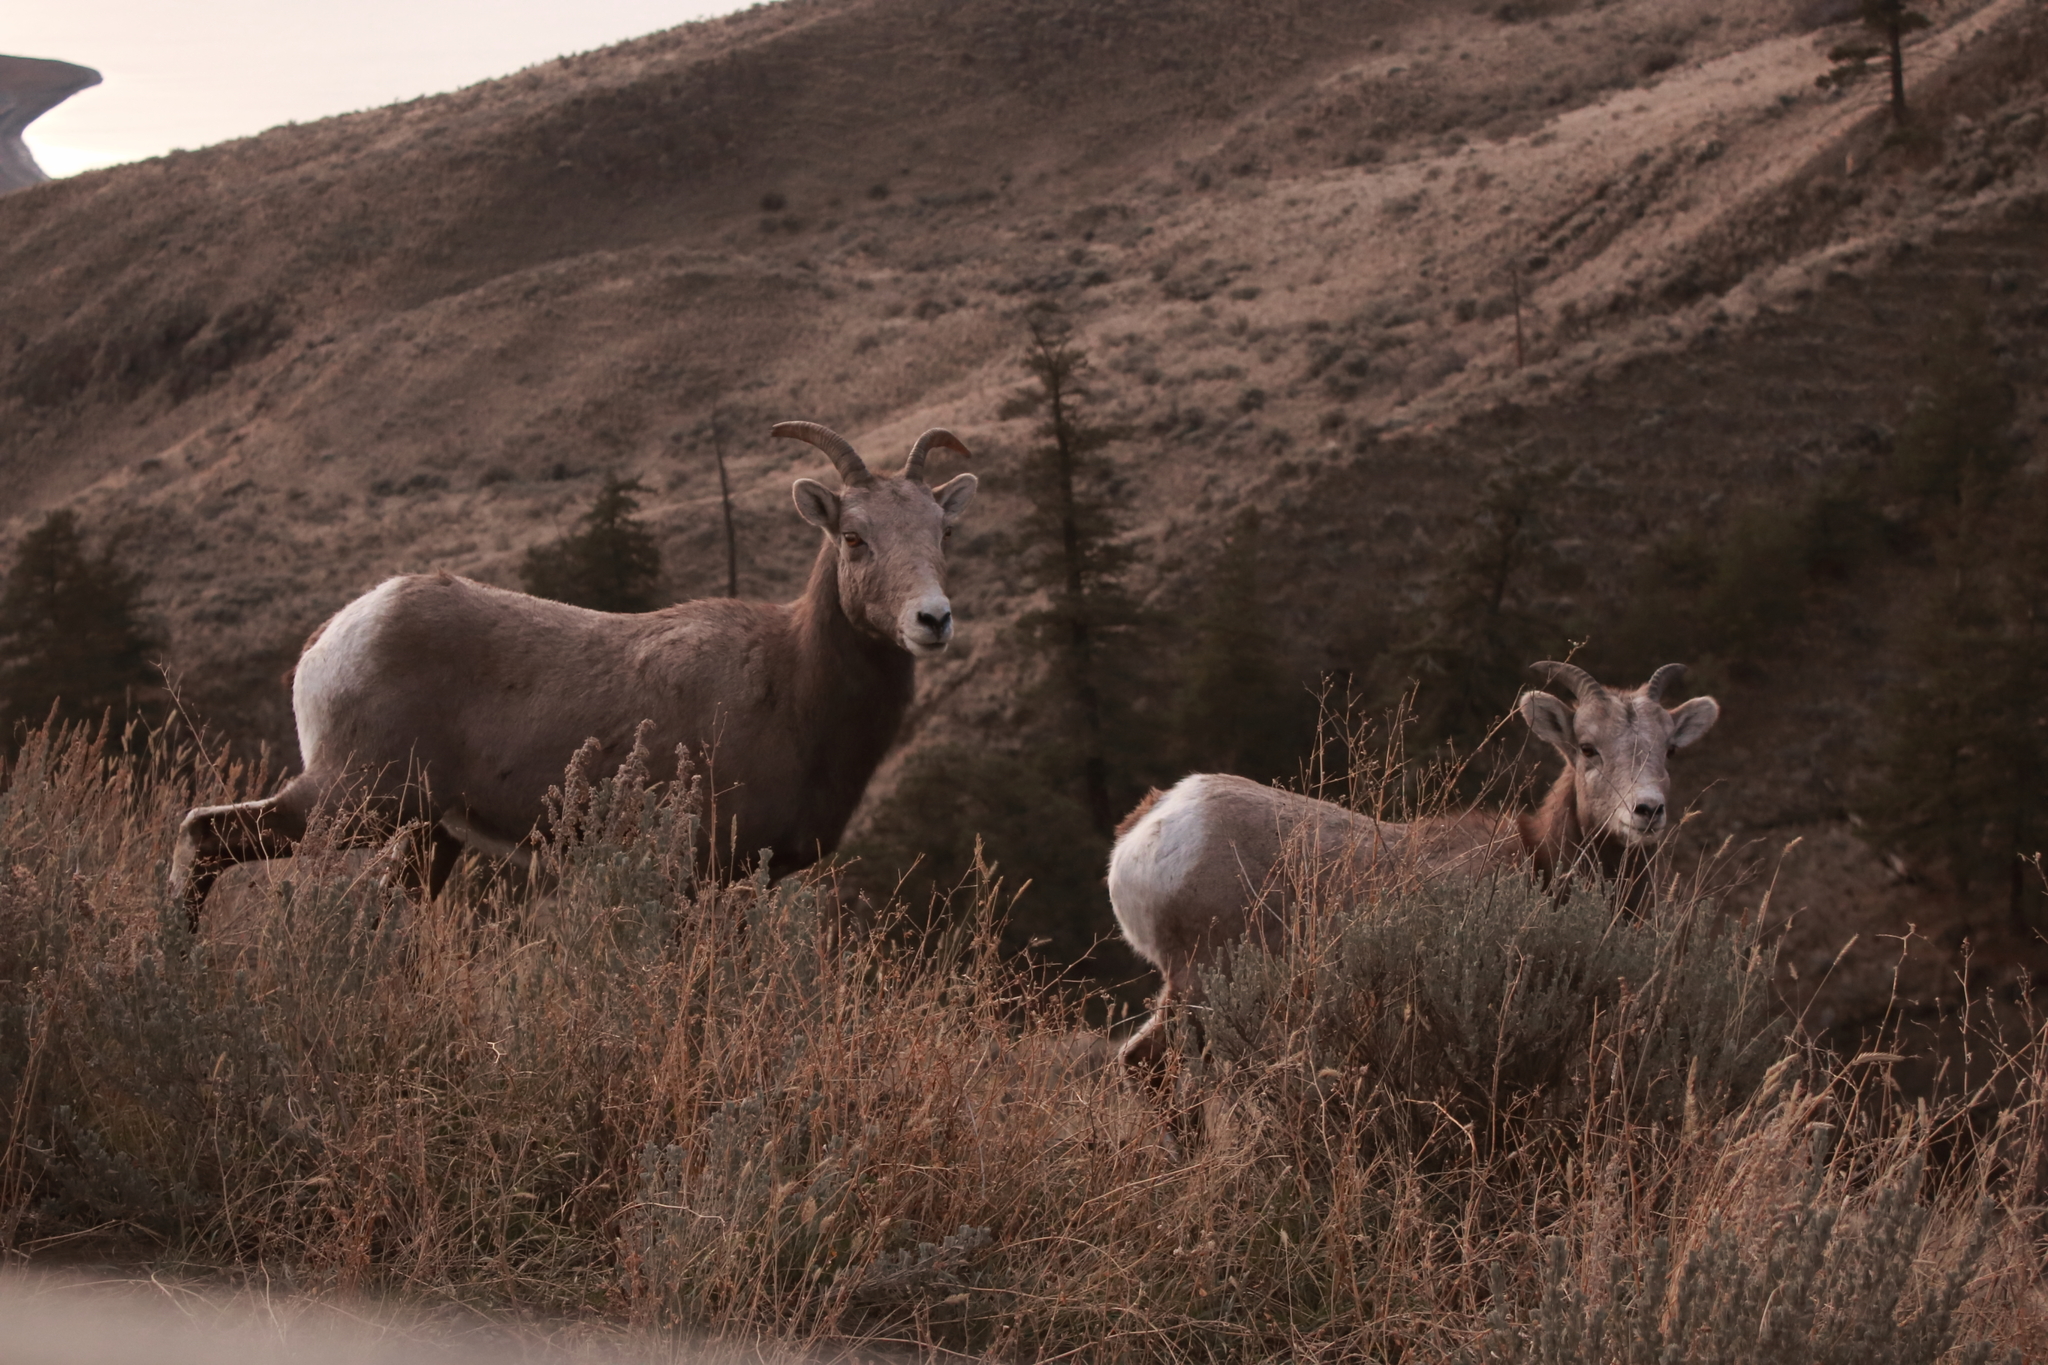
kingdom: Animalia
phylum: Chordata
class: Mammalia
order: Artiodactyla
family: Bovidae
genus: Ovis
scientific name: Ovis canadensis
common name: Bighorn sheep
